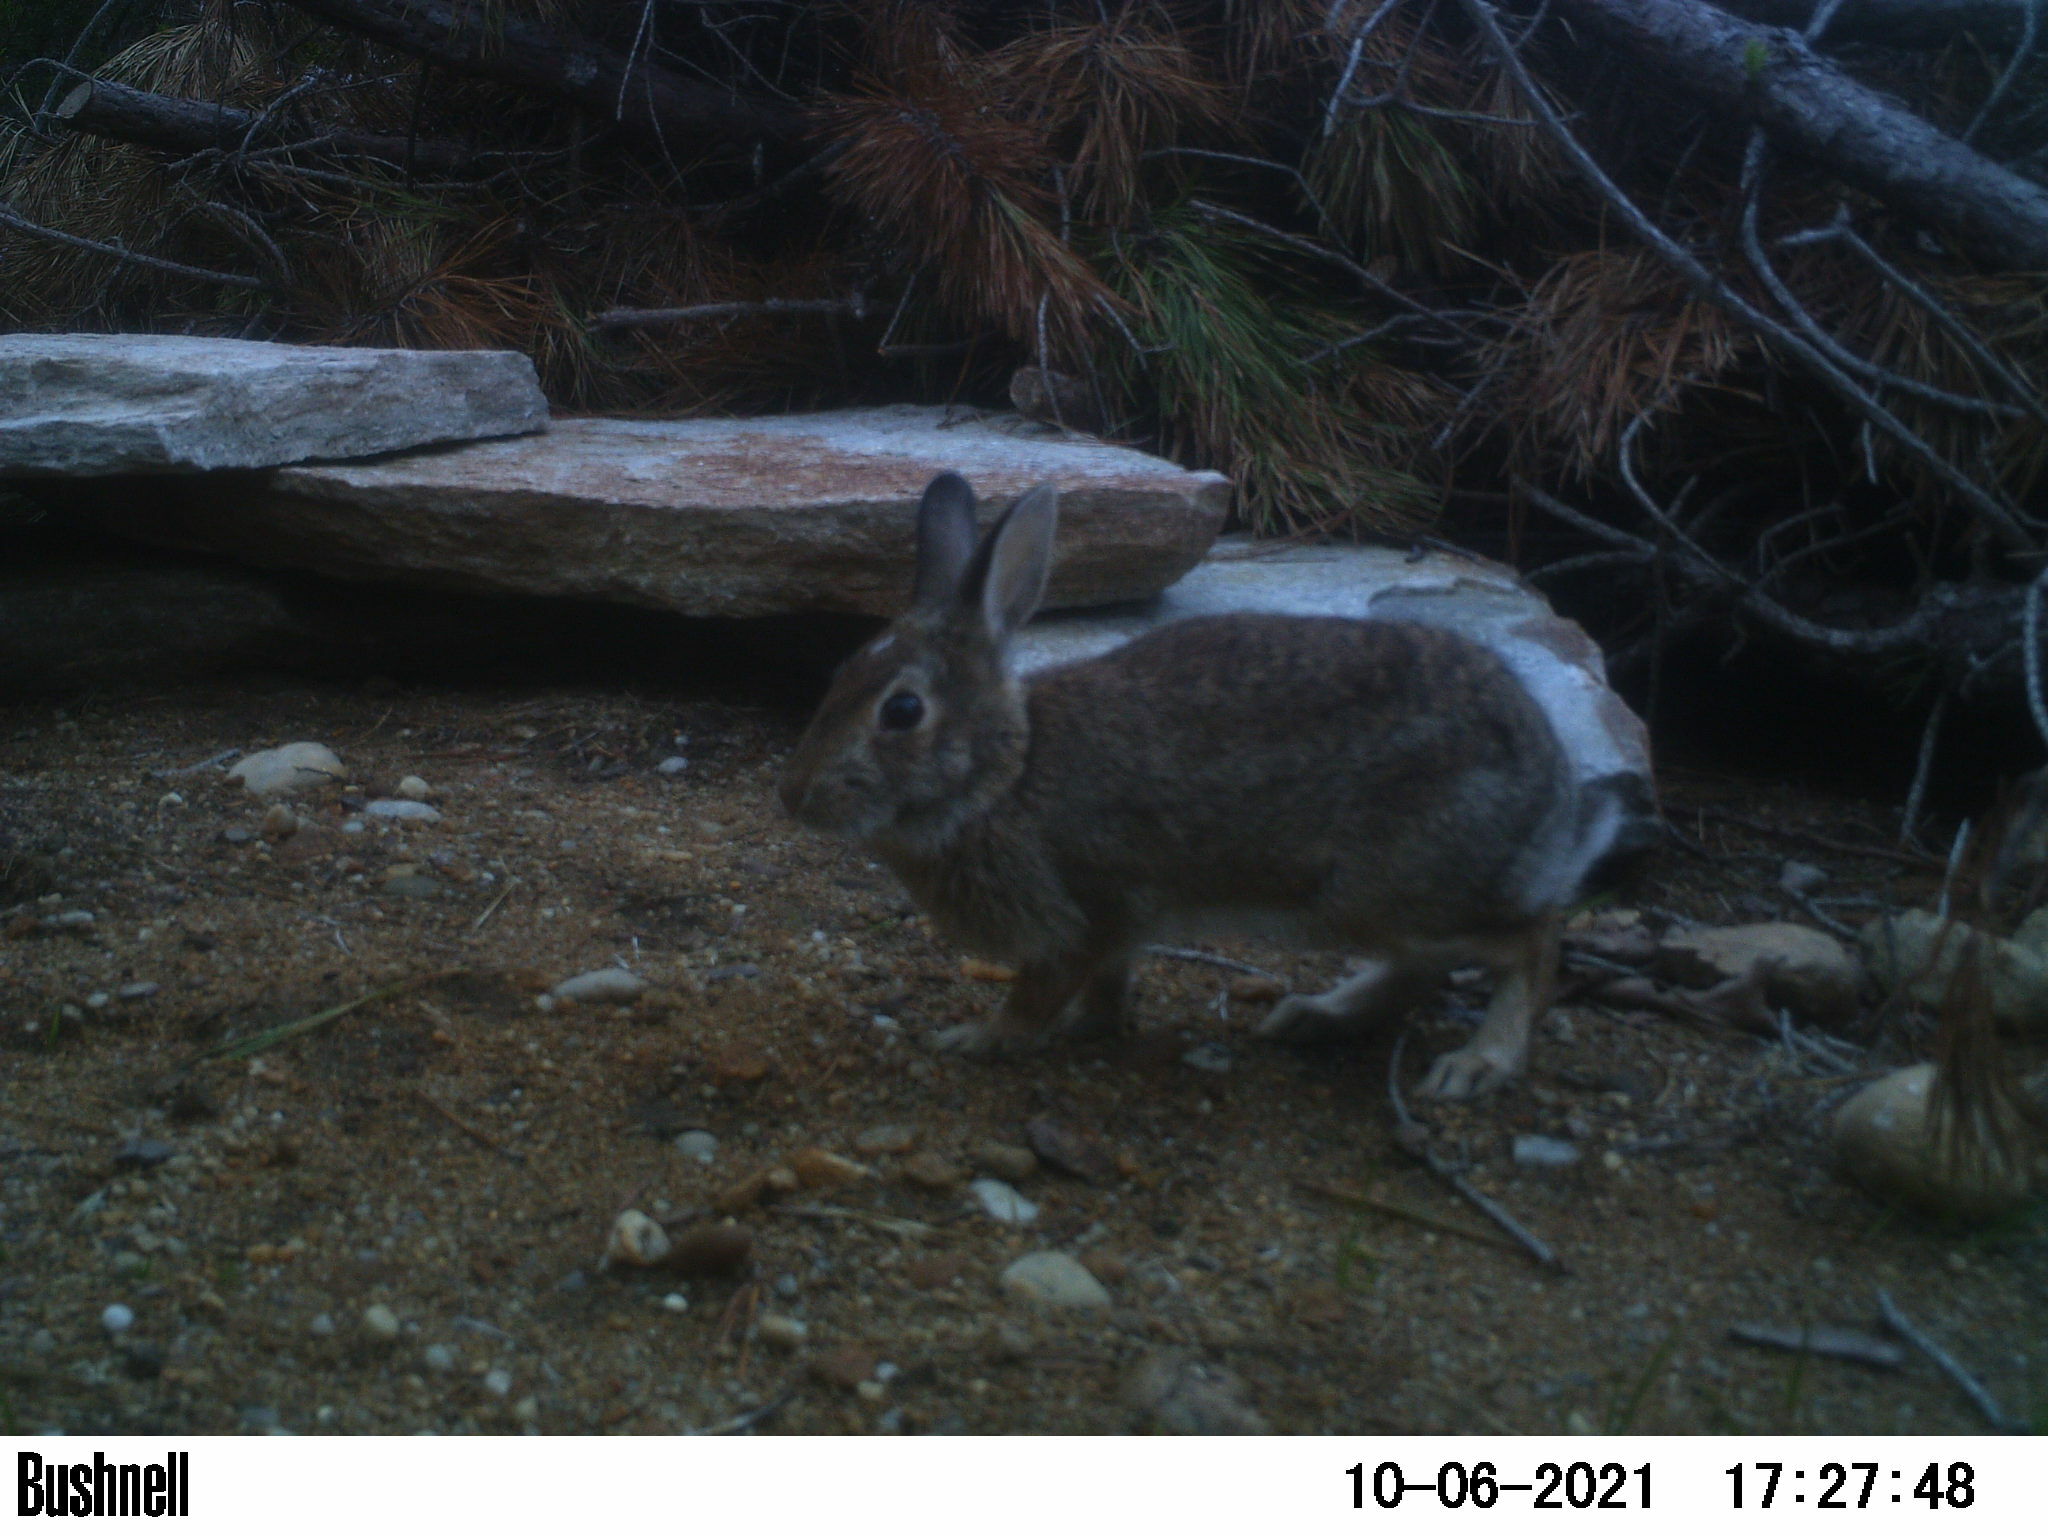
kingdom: Animalia
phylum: Chordata
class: Mammalia
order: Lagomorpha
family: Leporidae
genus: Sylvilagus
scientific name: Sylvilagus floridanus
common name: Eastern cottontail
